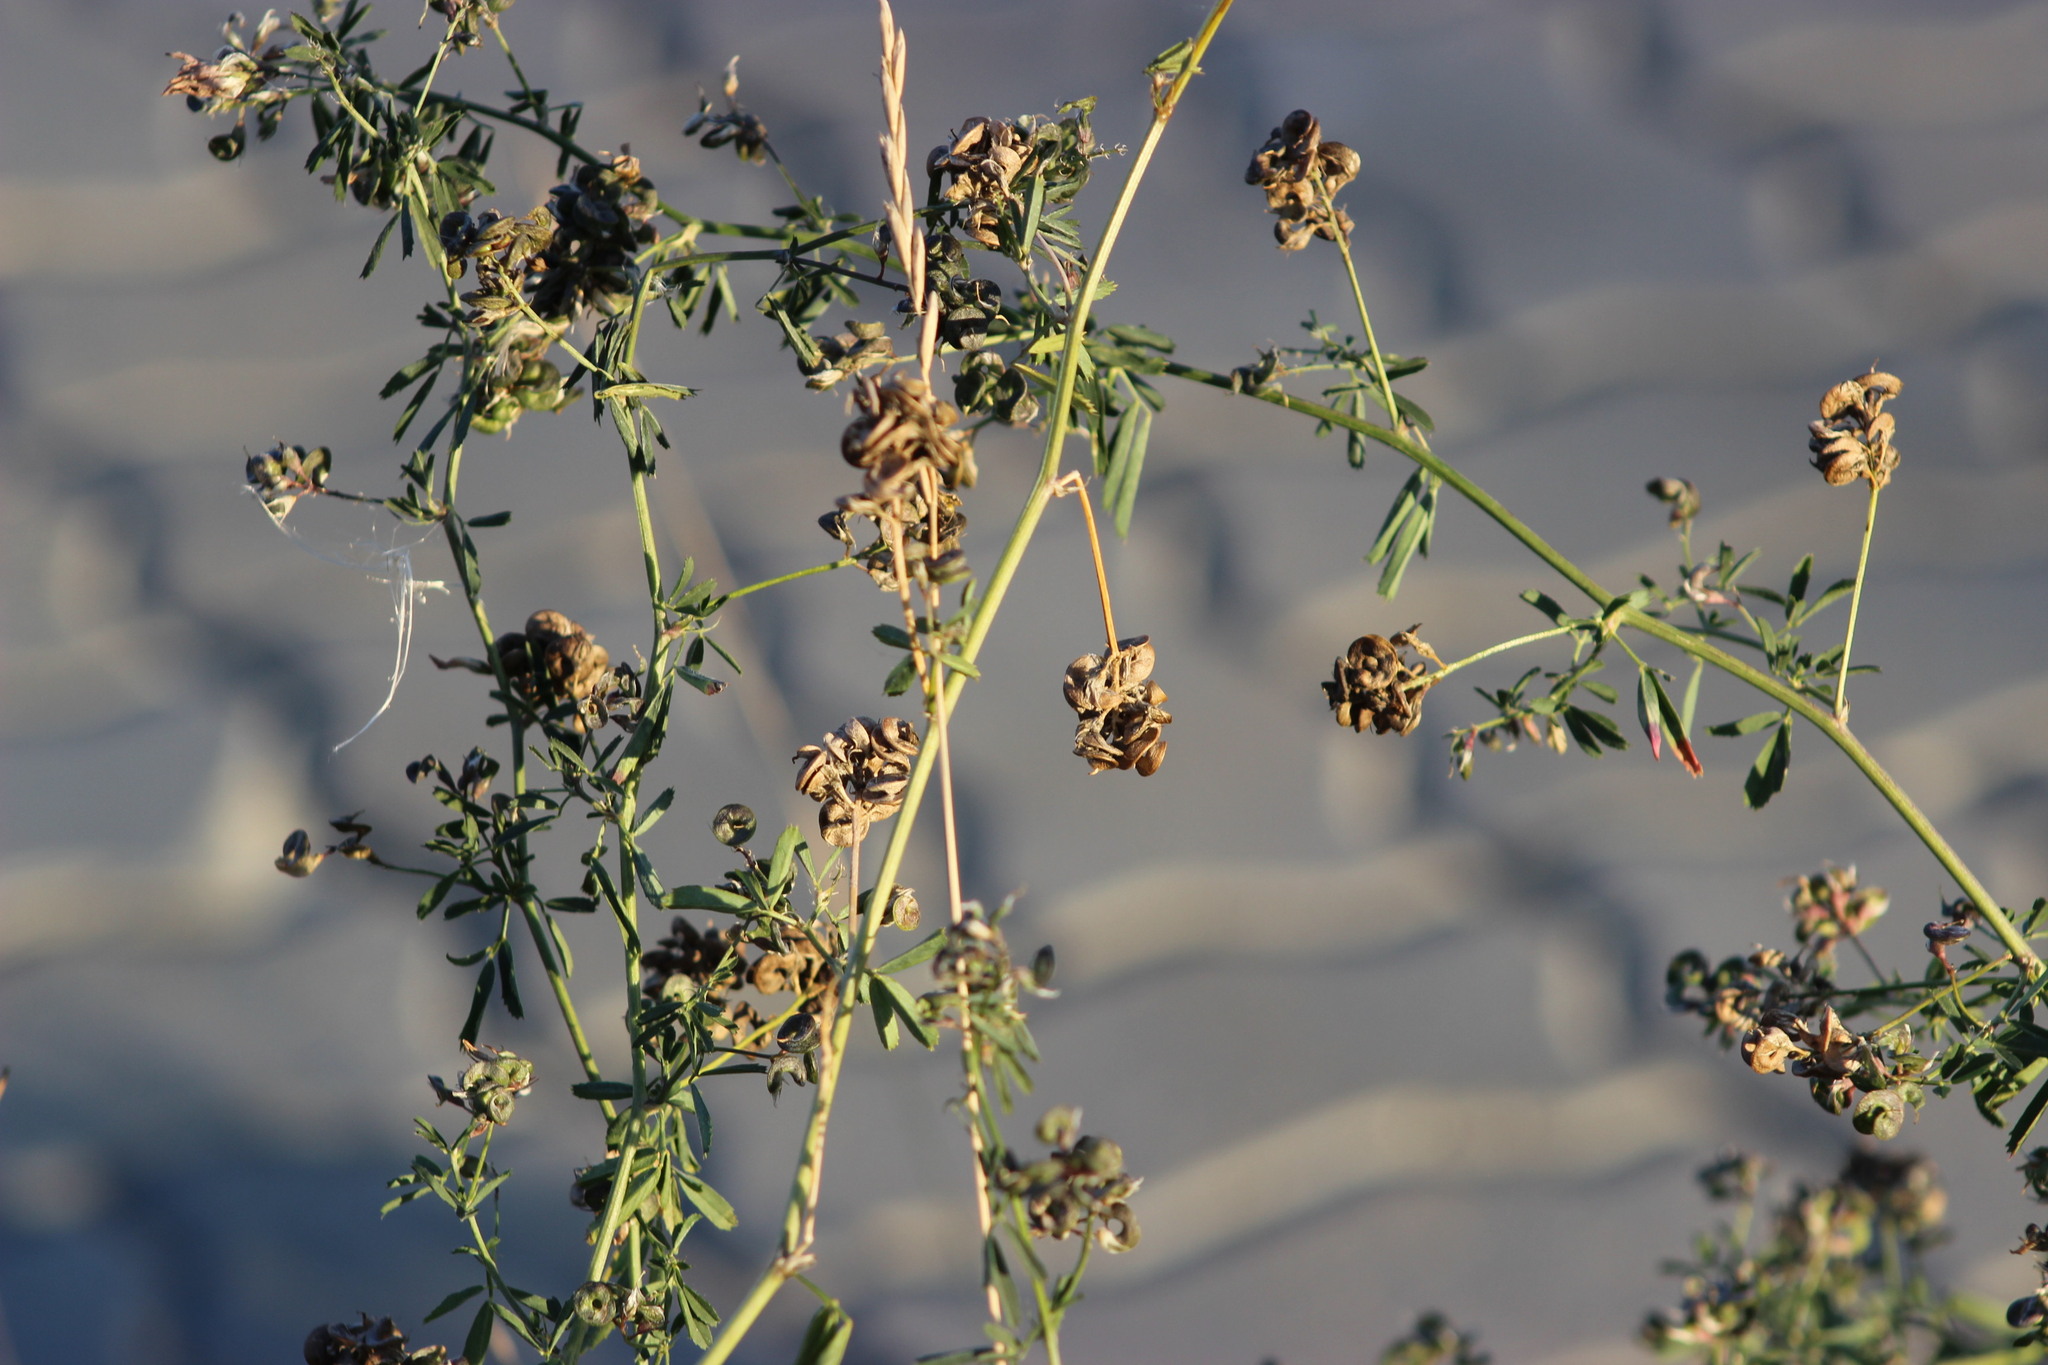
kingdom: Plantae
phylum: Tracheophyta
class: Magnoliopsida
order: Fabales
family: Fabaceae
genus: Medicago
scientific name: Medicago varia
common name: Sand lucerne
